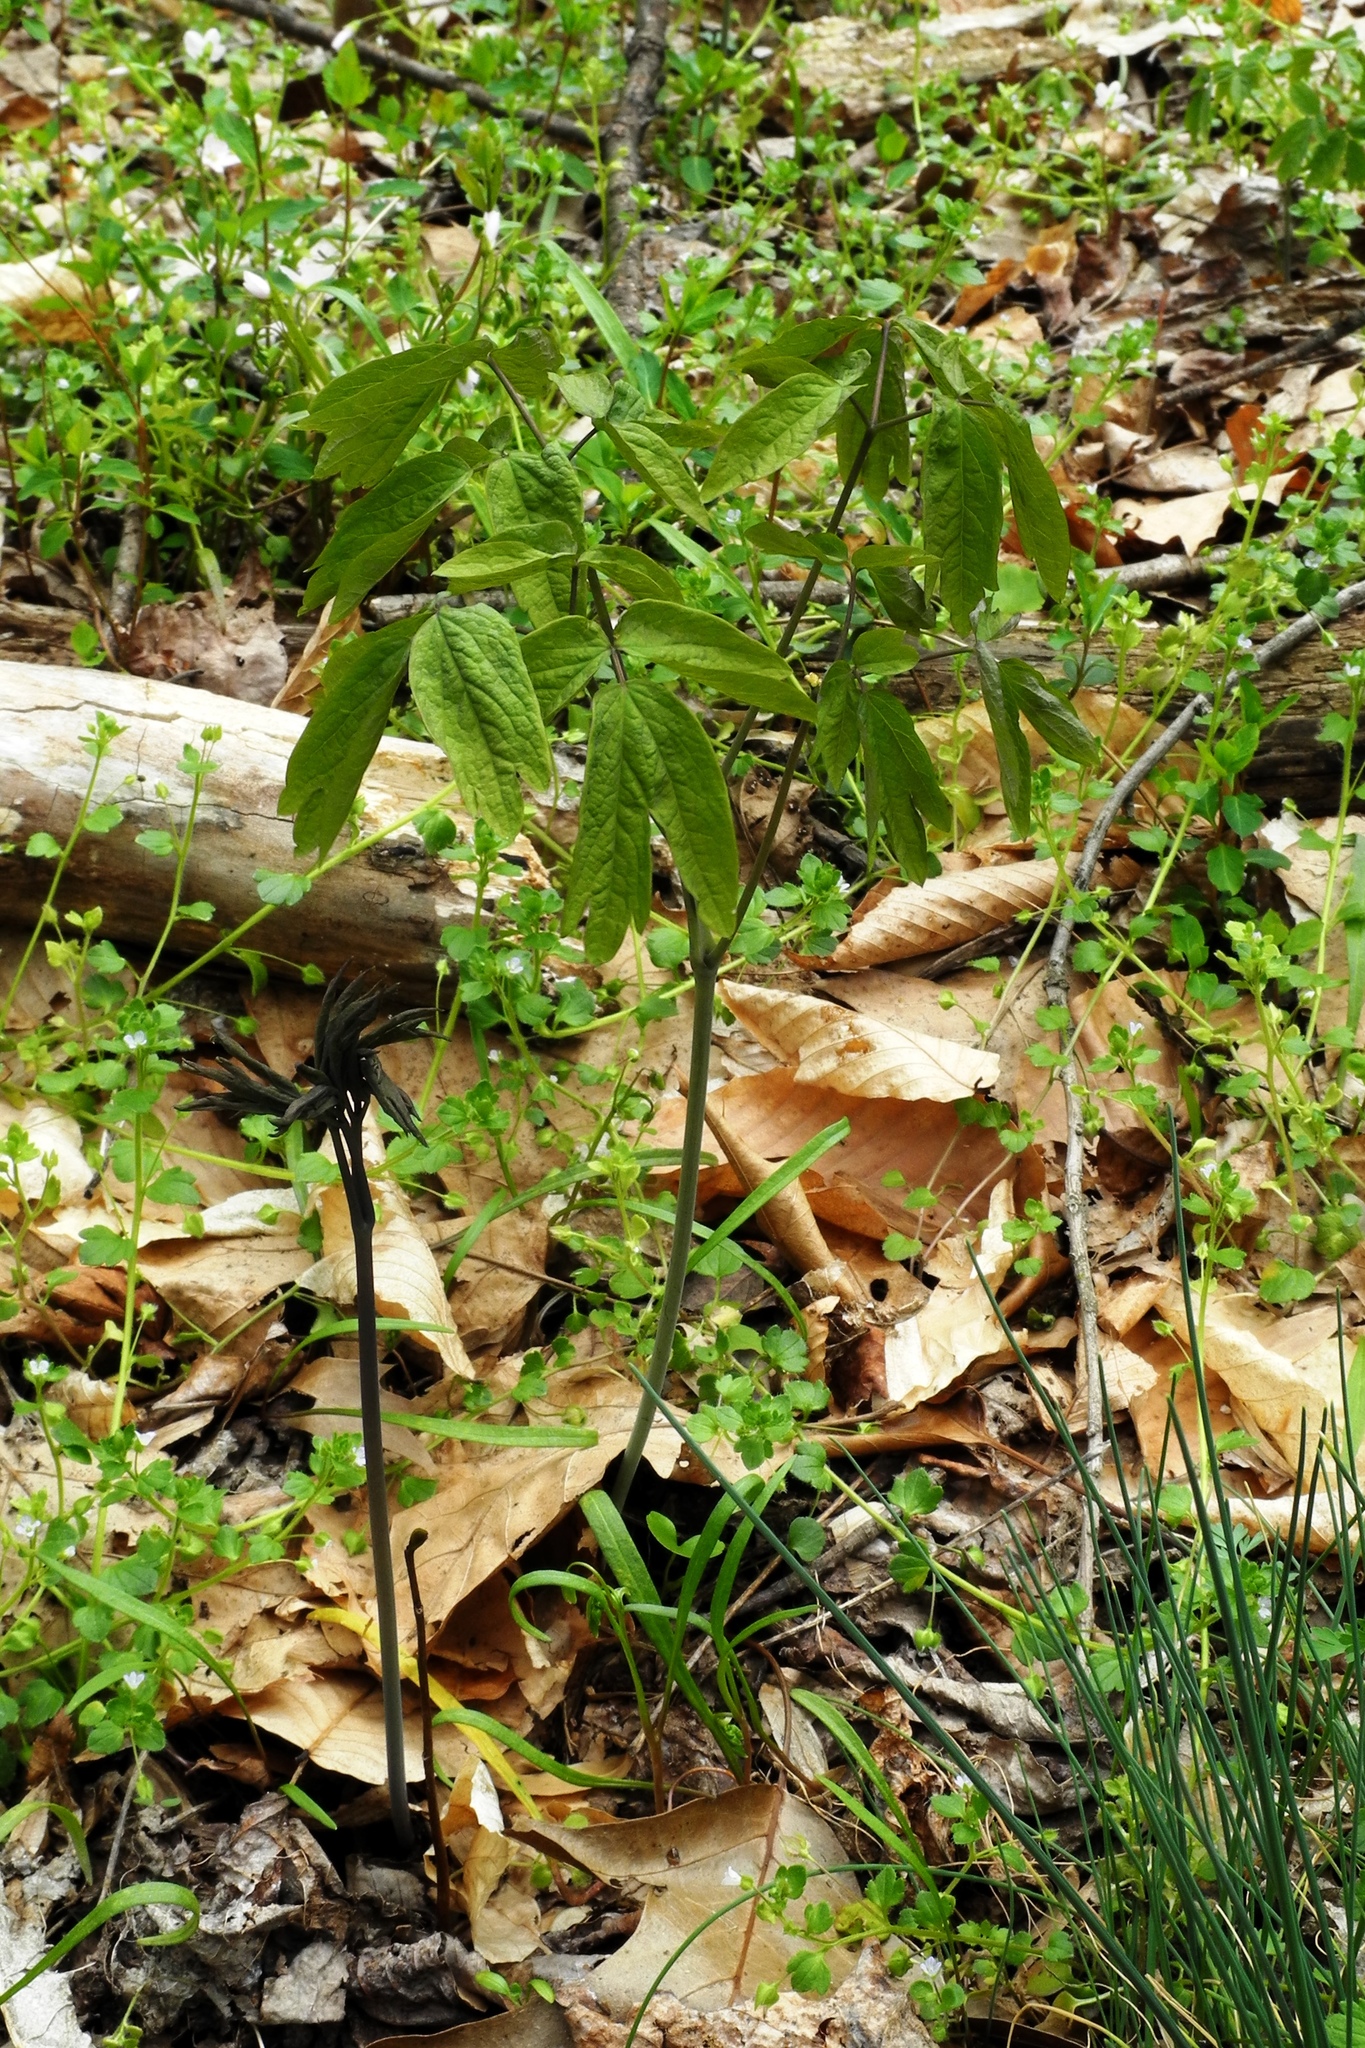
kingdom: Plantae
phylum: Tracheophyta
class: Magnoliopsida
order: Ranunculales
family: Berberidaceae
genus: Caulophyllum
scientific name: Caulophyllum thalictroides
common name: Blue cohosh
